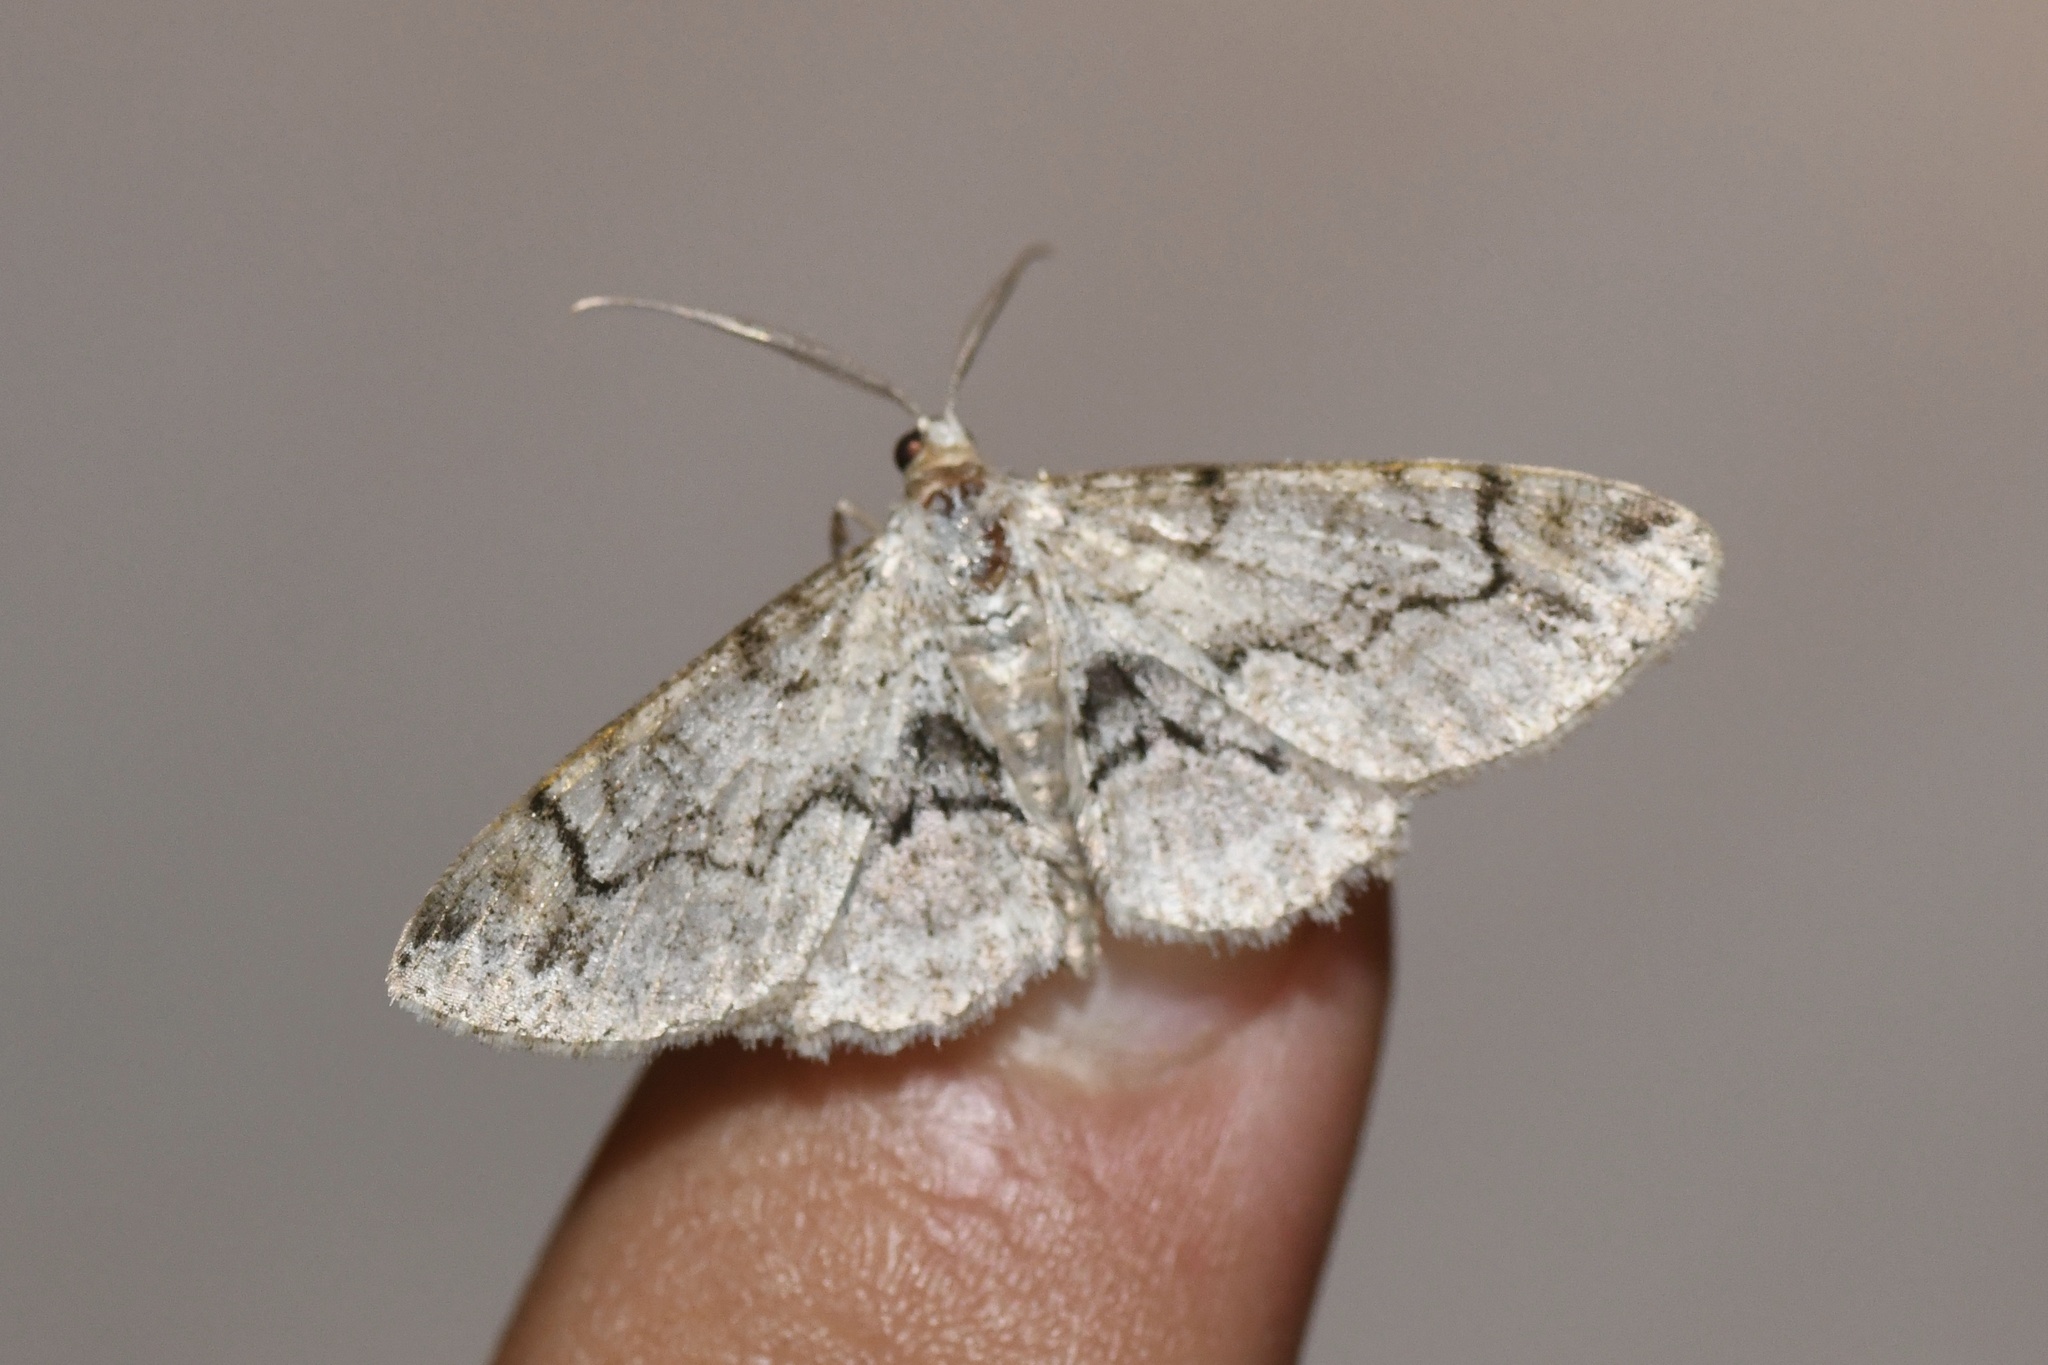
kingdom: Animalia
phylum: Arthropoda
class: Insecta
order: Lepidoptera
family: Geometridae
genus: Iridopsis
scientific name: Iridopsis larvaria
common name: Bent-line gray
